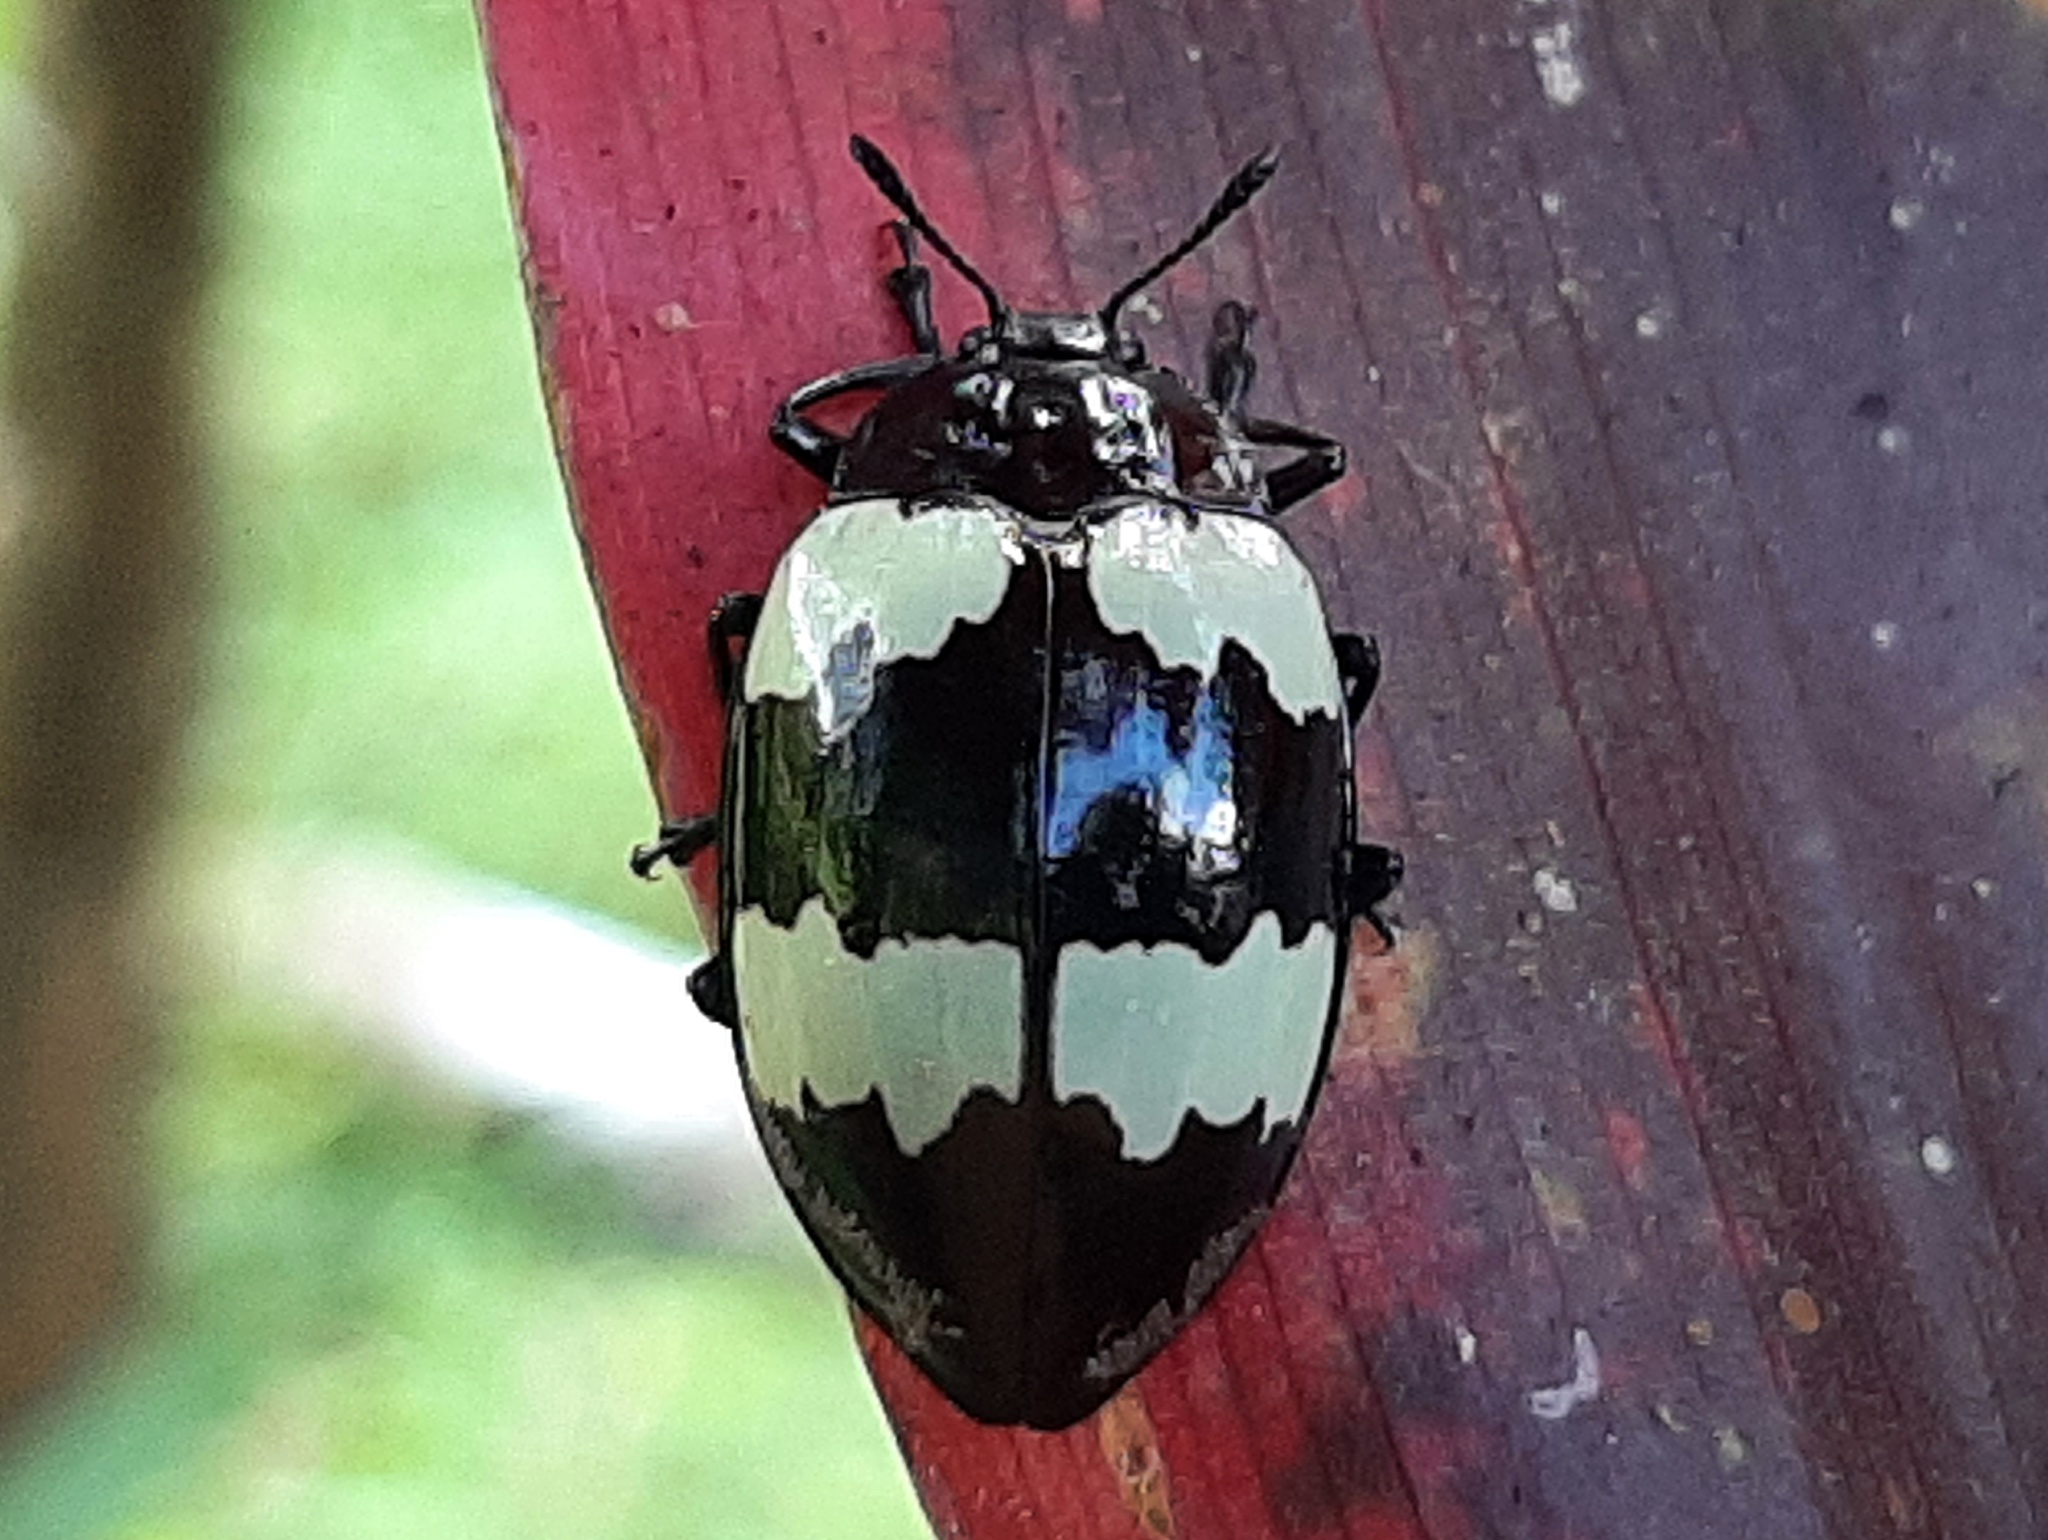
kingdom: Animalia
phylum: Arthropoda
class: Insecta
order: Coleoptera
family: Erotylidae
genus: Barytopus
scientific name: Barytopus lunulatus
